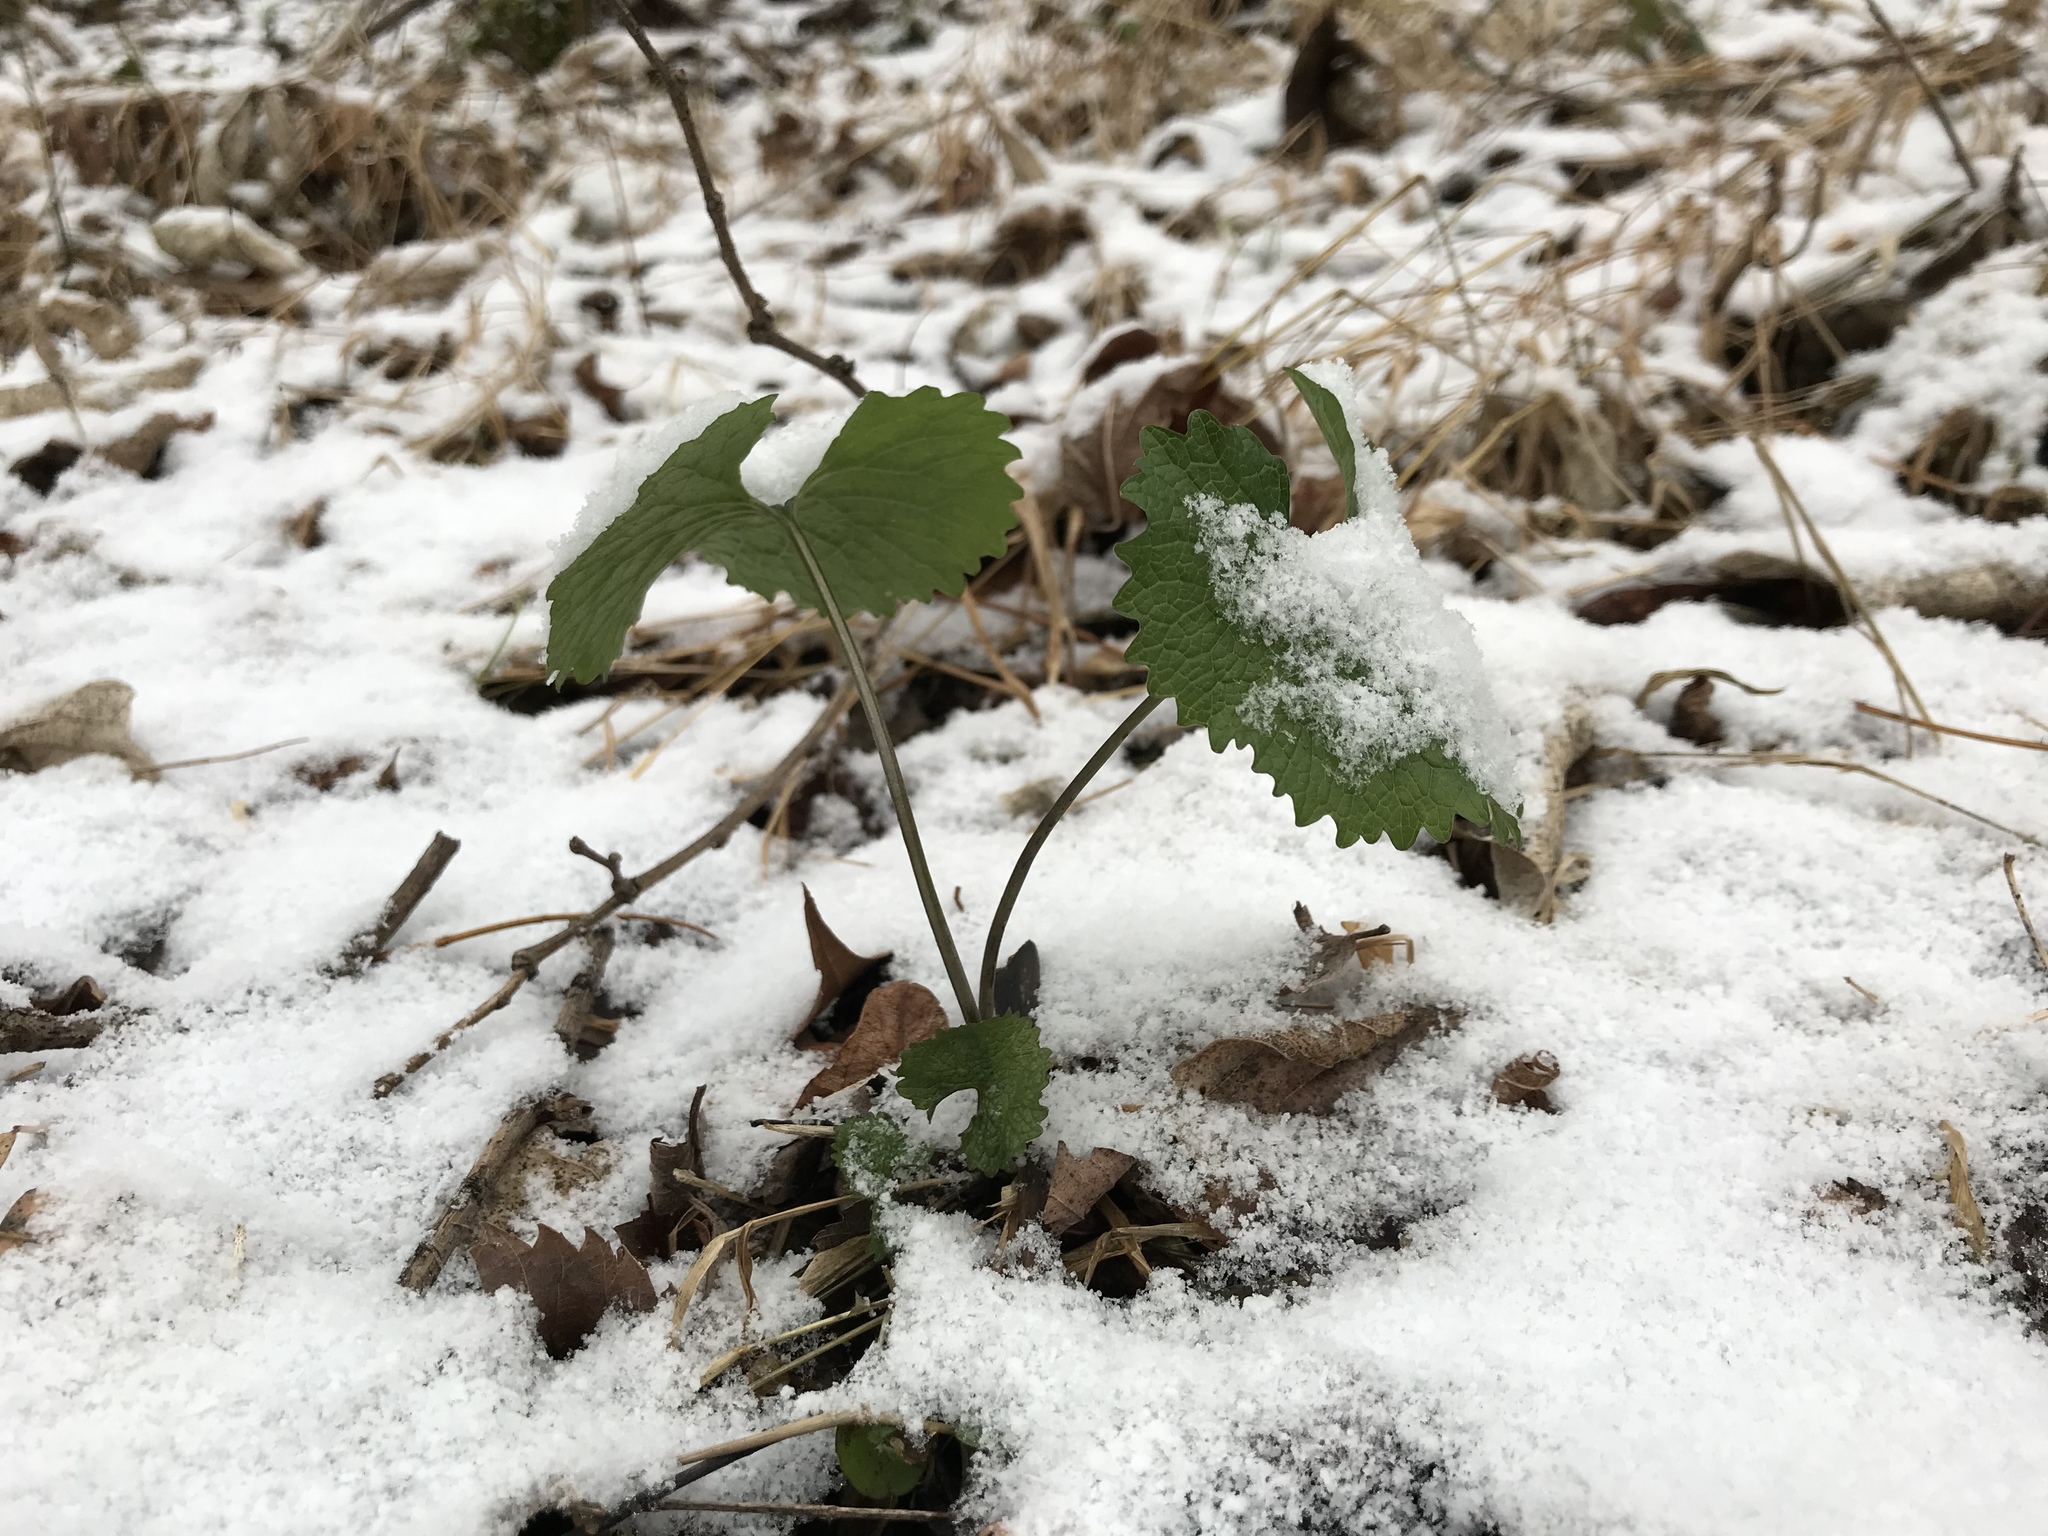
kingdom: Plantae
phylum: Tracheophyta
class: Magnoliopsida
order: Brassicales
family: Brassicaceae
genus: Alliaria
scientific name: Alliaria petiolata
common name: Garlic mustard
